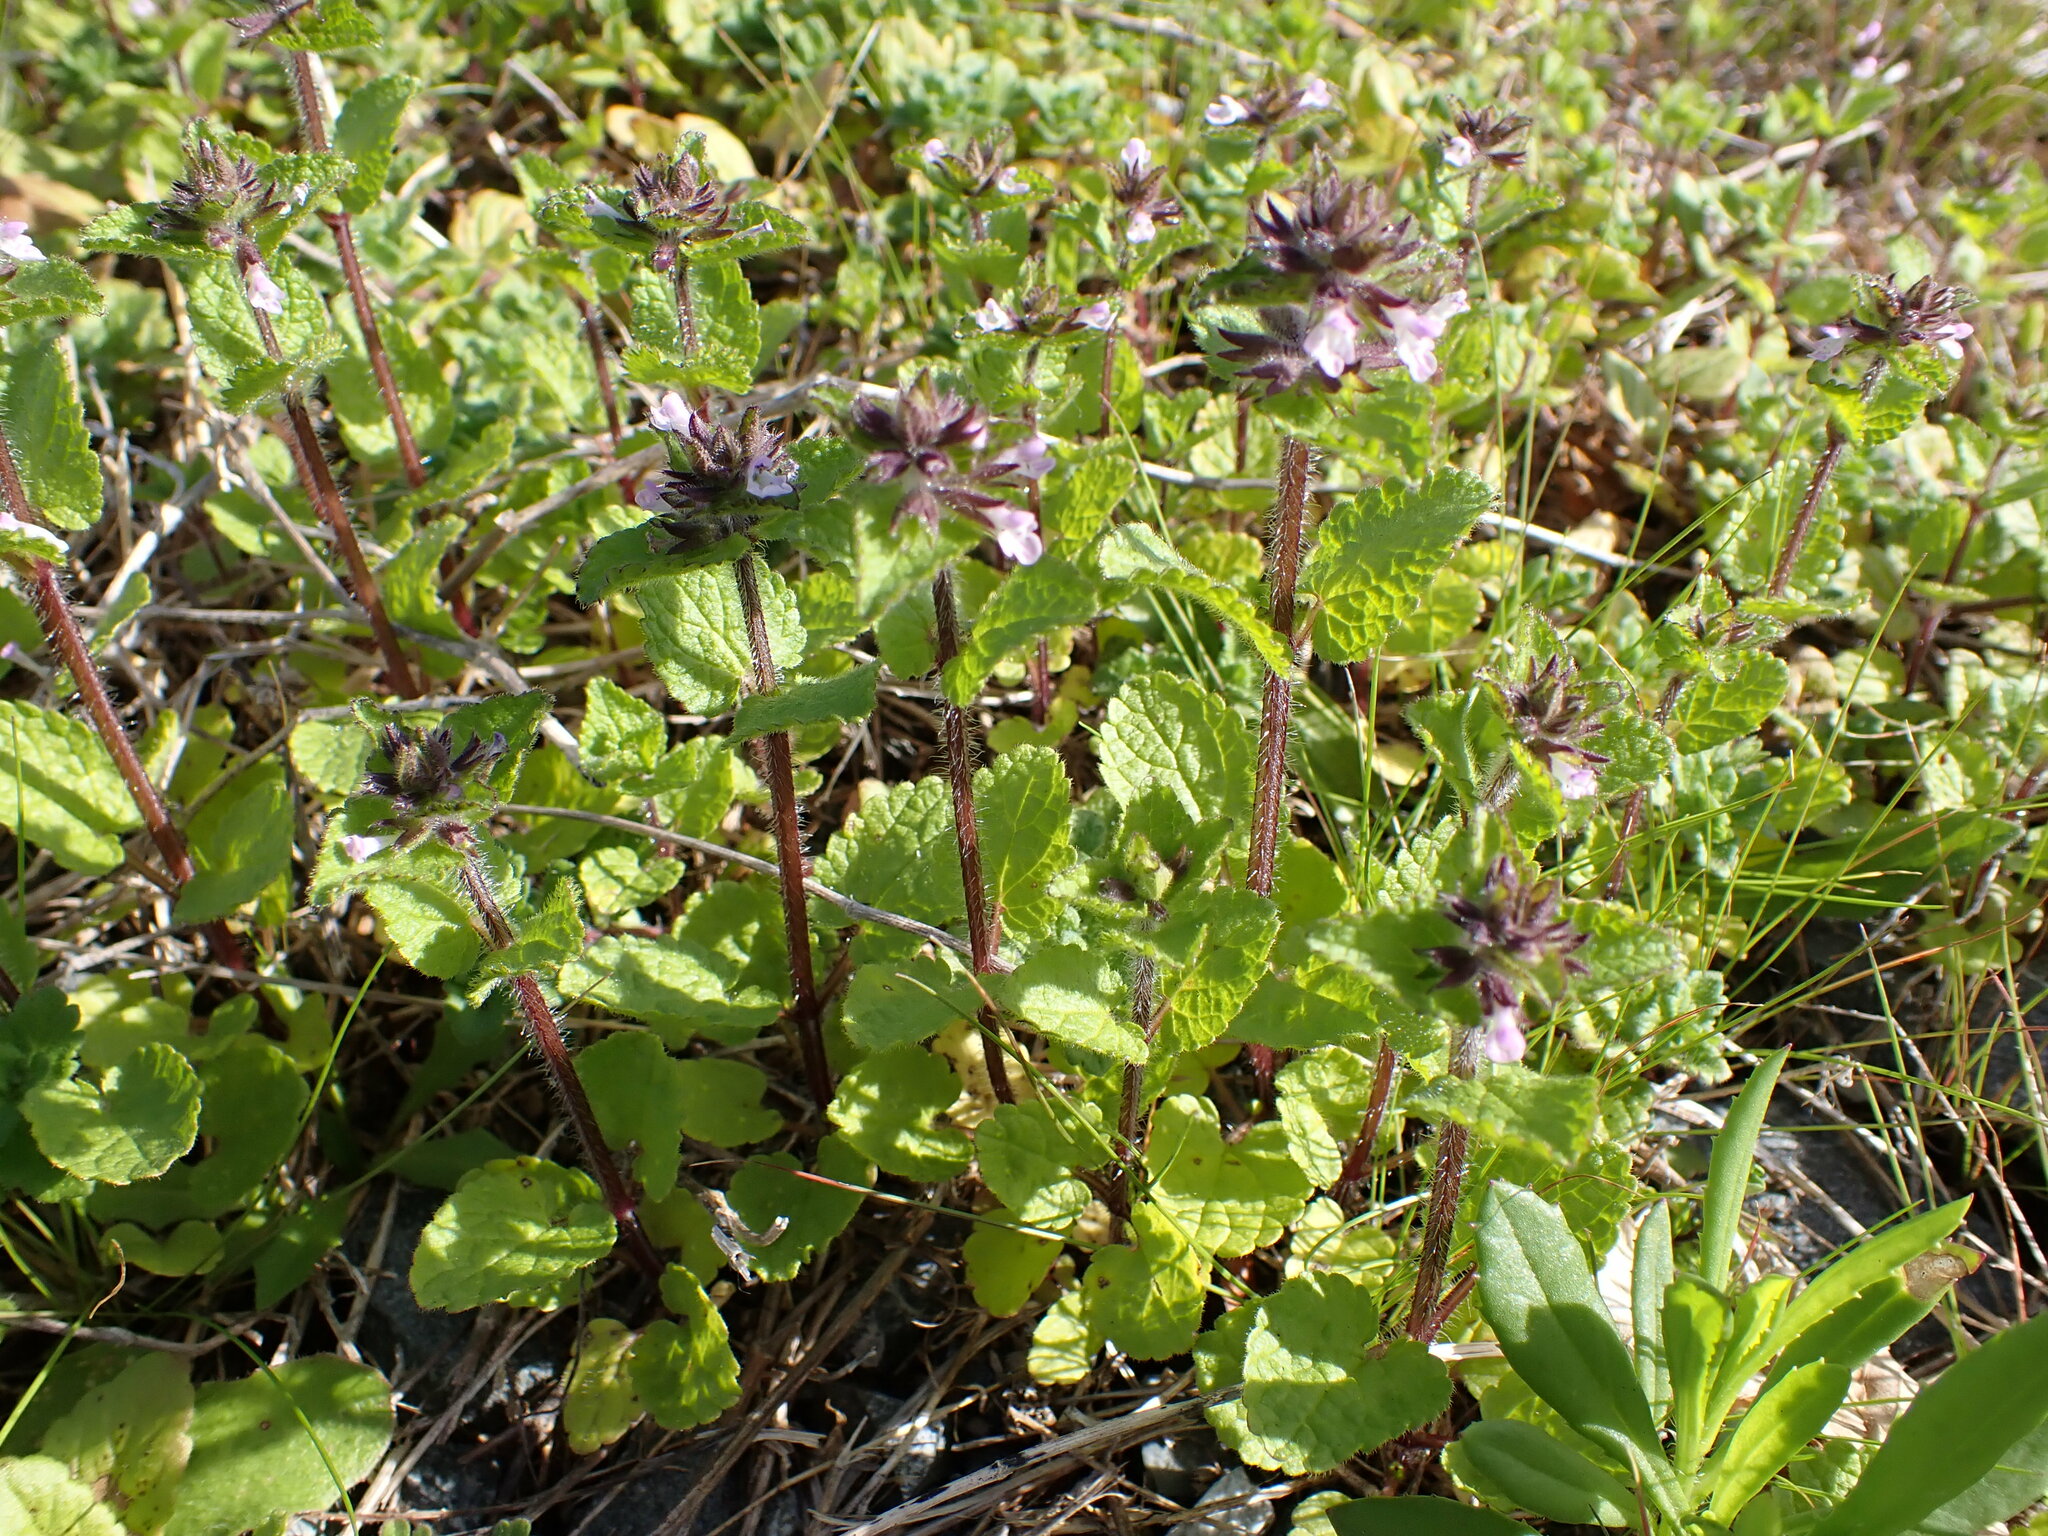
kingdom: Plantae
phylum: Tracheophyta
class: Magnoliopsida
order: Lamiales
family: Lamiaceae
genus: Stachys
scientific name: Stachys arvensis
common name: Field woundwort
